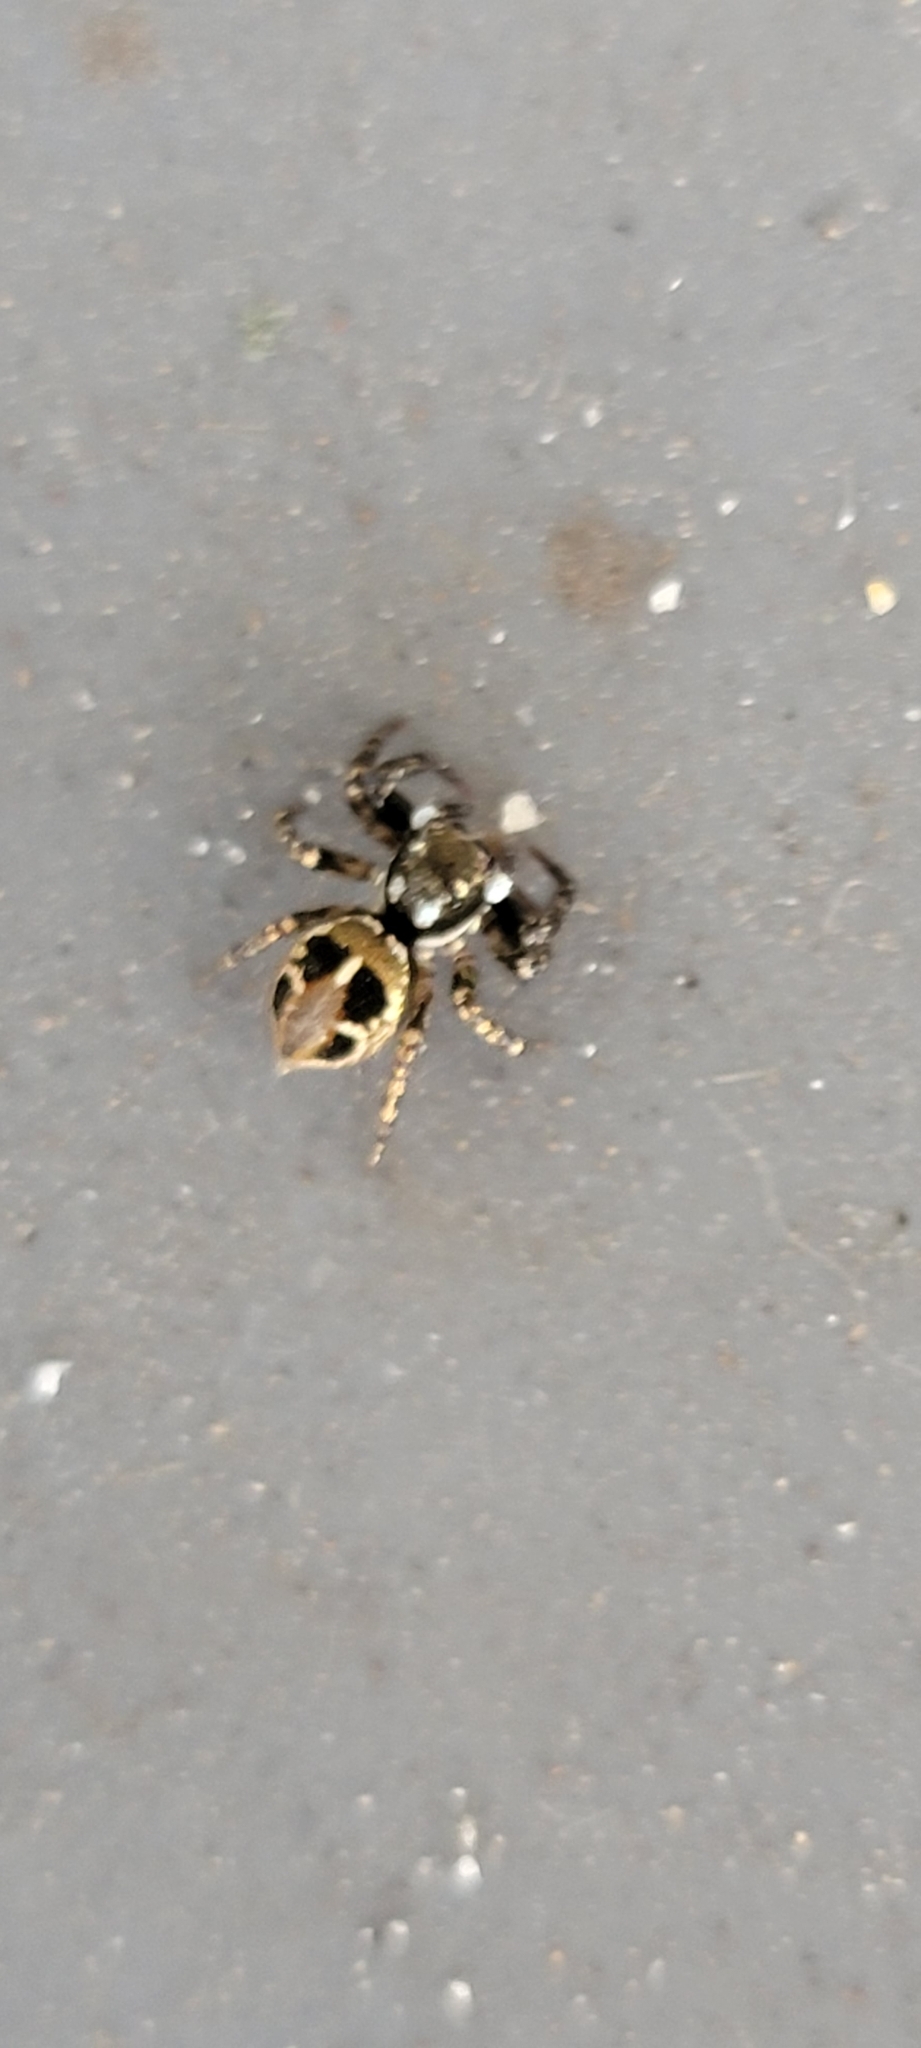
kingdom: Animalia
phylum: Arthropoda
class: Arachnida
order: Araneae
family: Salticidae
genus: Anasaitis
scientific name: Anasaitis canosa
